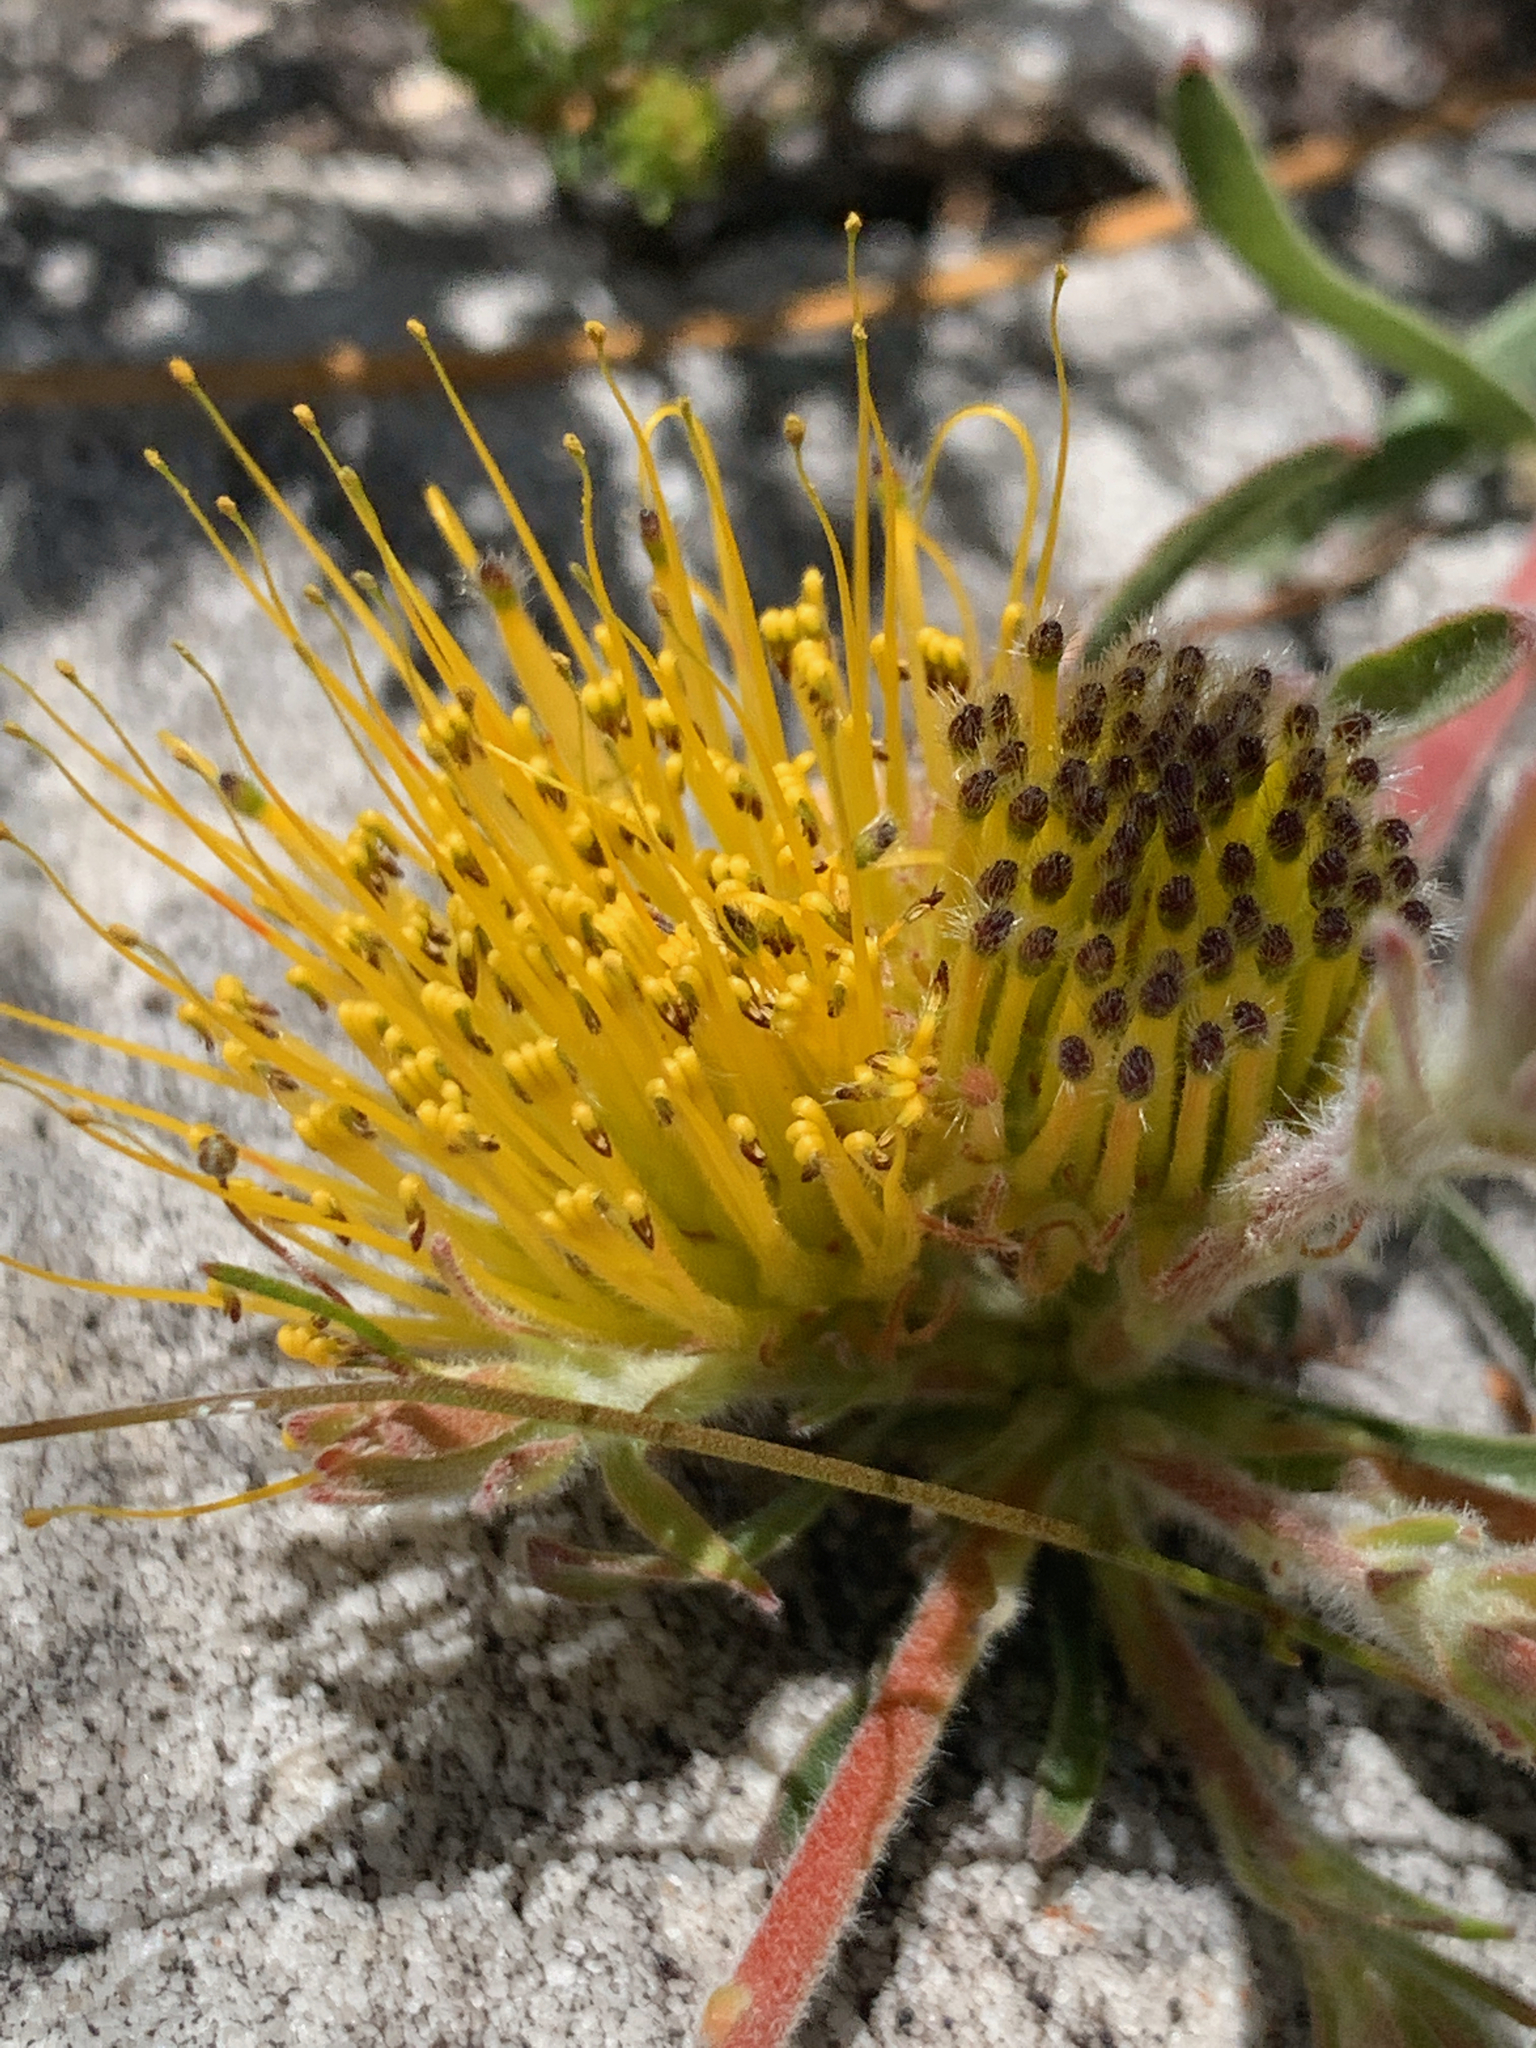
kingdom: Plantae
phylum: Tracheophyta
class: Magnoliopsida
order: Proteales
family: Proteaceae
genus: Leucospermum
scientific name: Leucospermum gracile
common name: Hermanus pincushion
